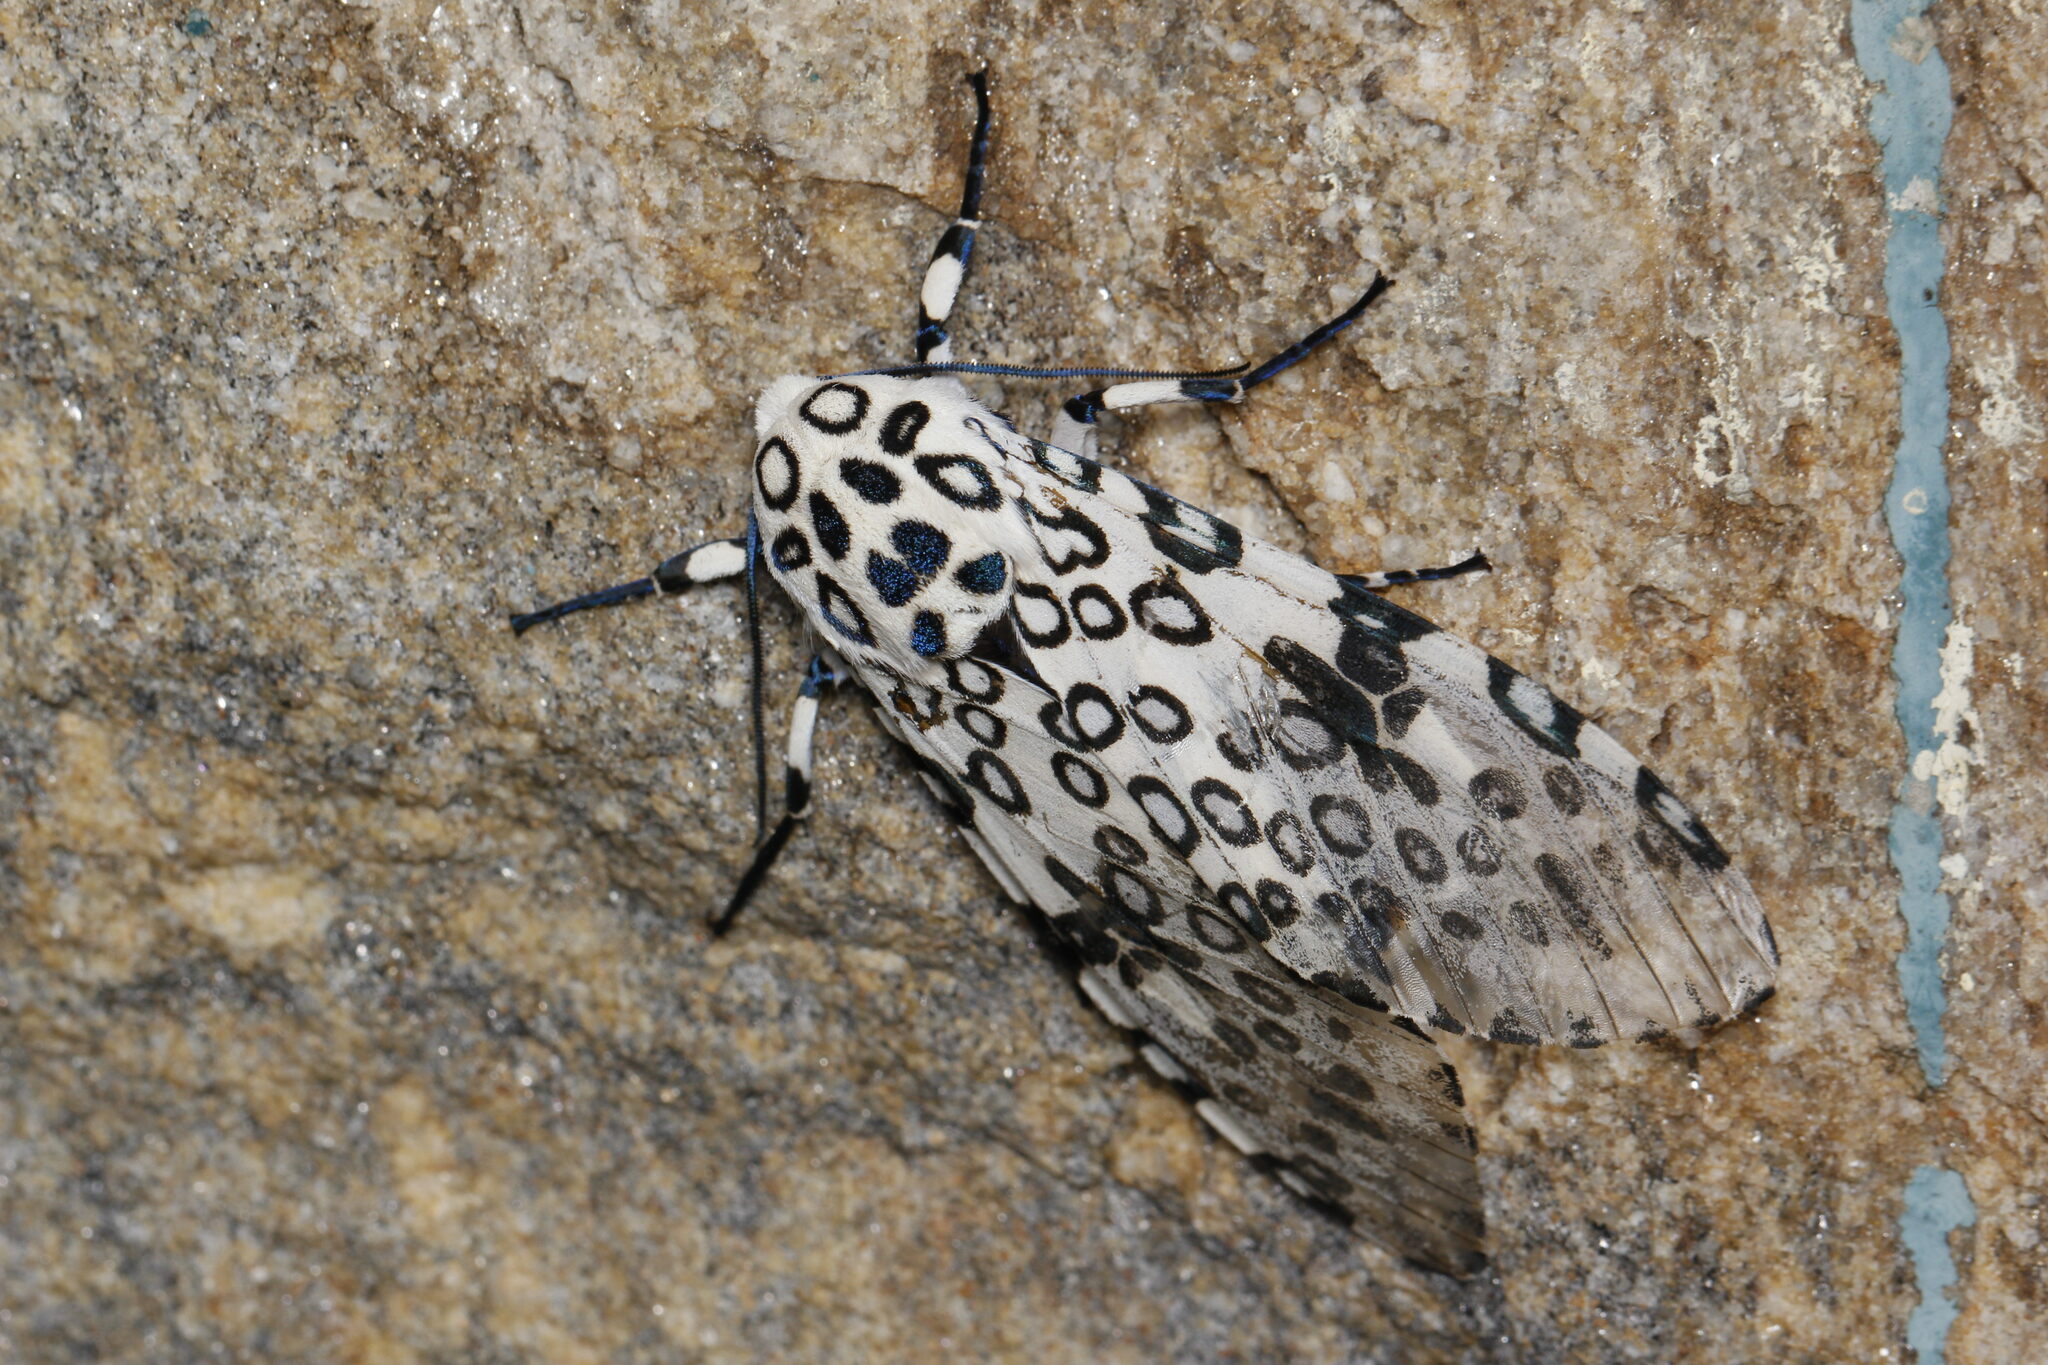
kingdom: Animalia
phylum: Arthropoda
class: Insecta
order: Lepidoptera
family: Erebidae
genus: Hypercompe
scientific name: Hypercompe scribonia
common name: Giant leopard moth
